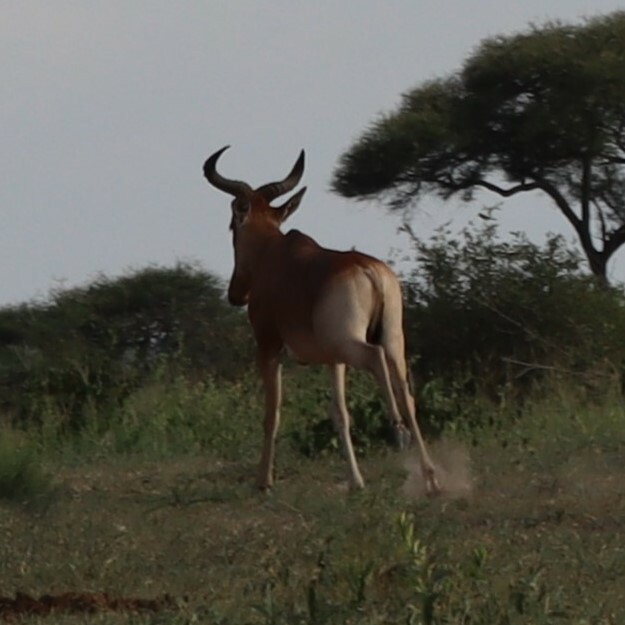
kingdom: Animalia
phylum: Chordata
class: Mammalia
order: Artiodactyla
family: Bovidae
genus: Alcelaphus
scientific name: Alcelaphus buselaphus
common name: Hartebeest
